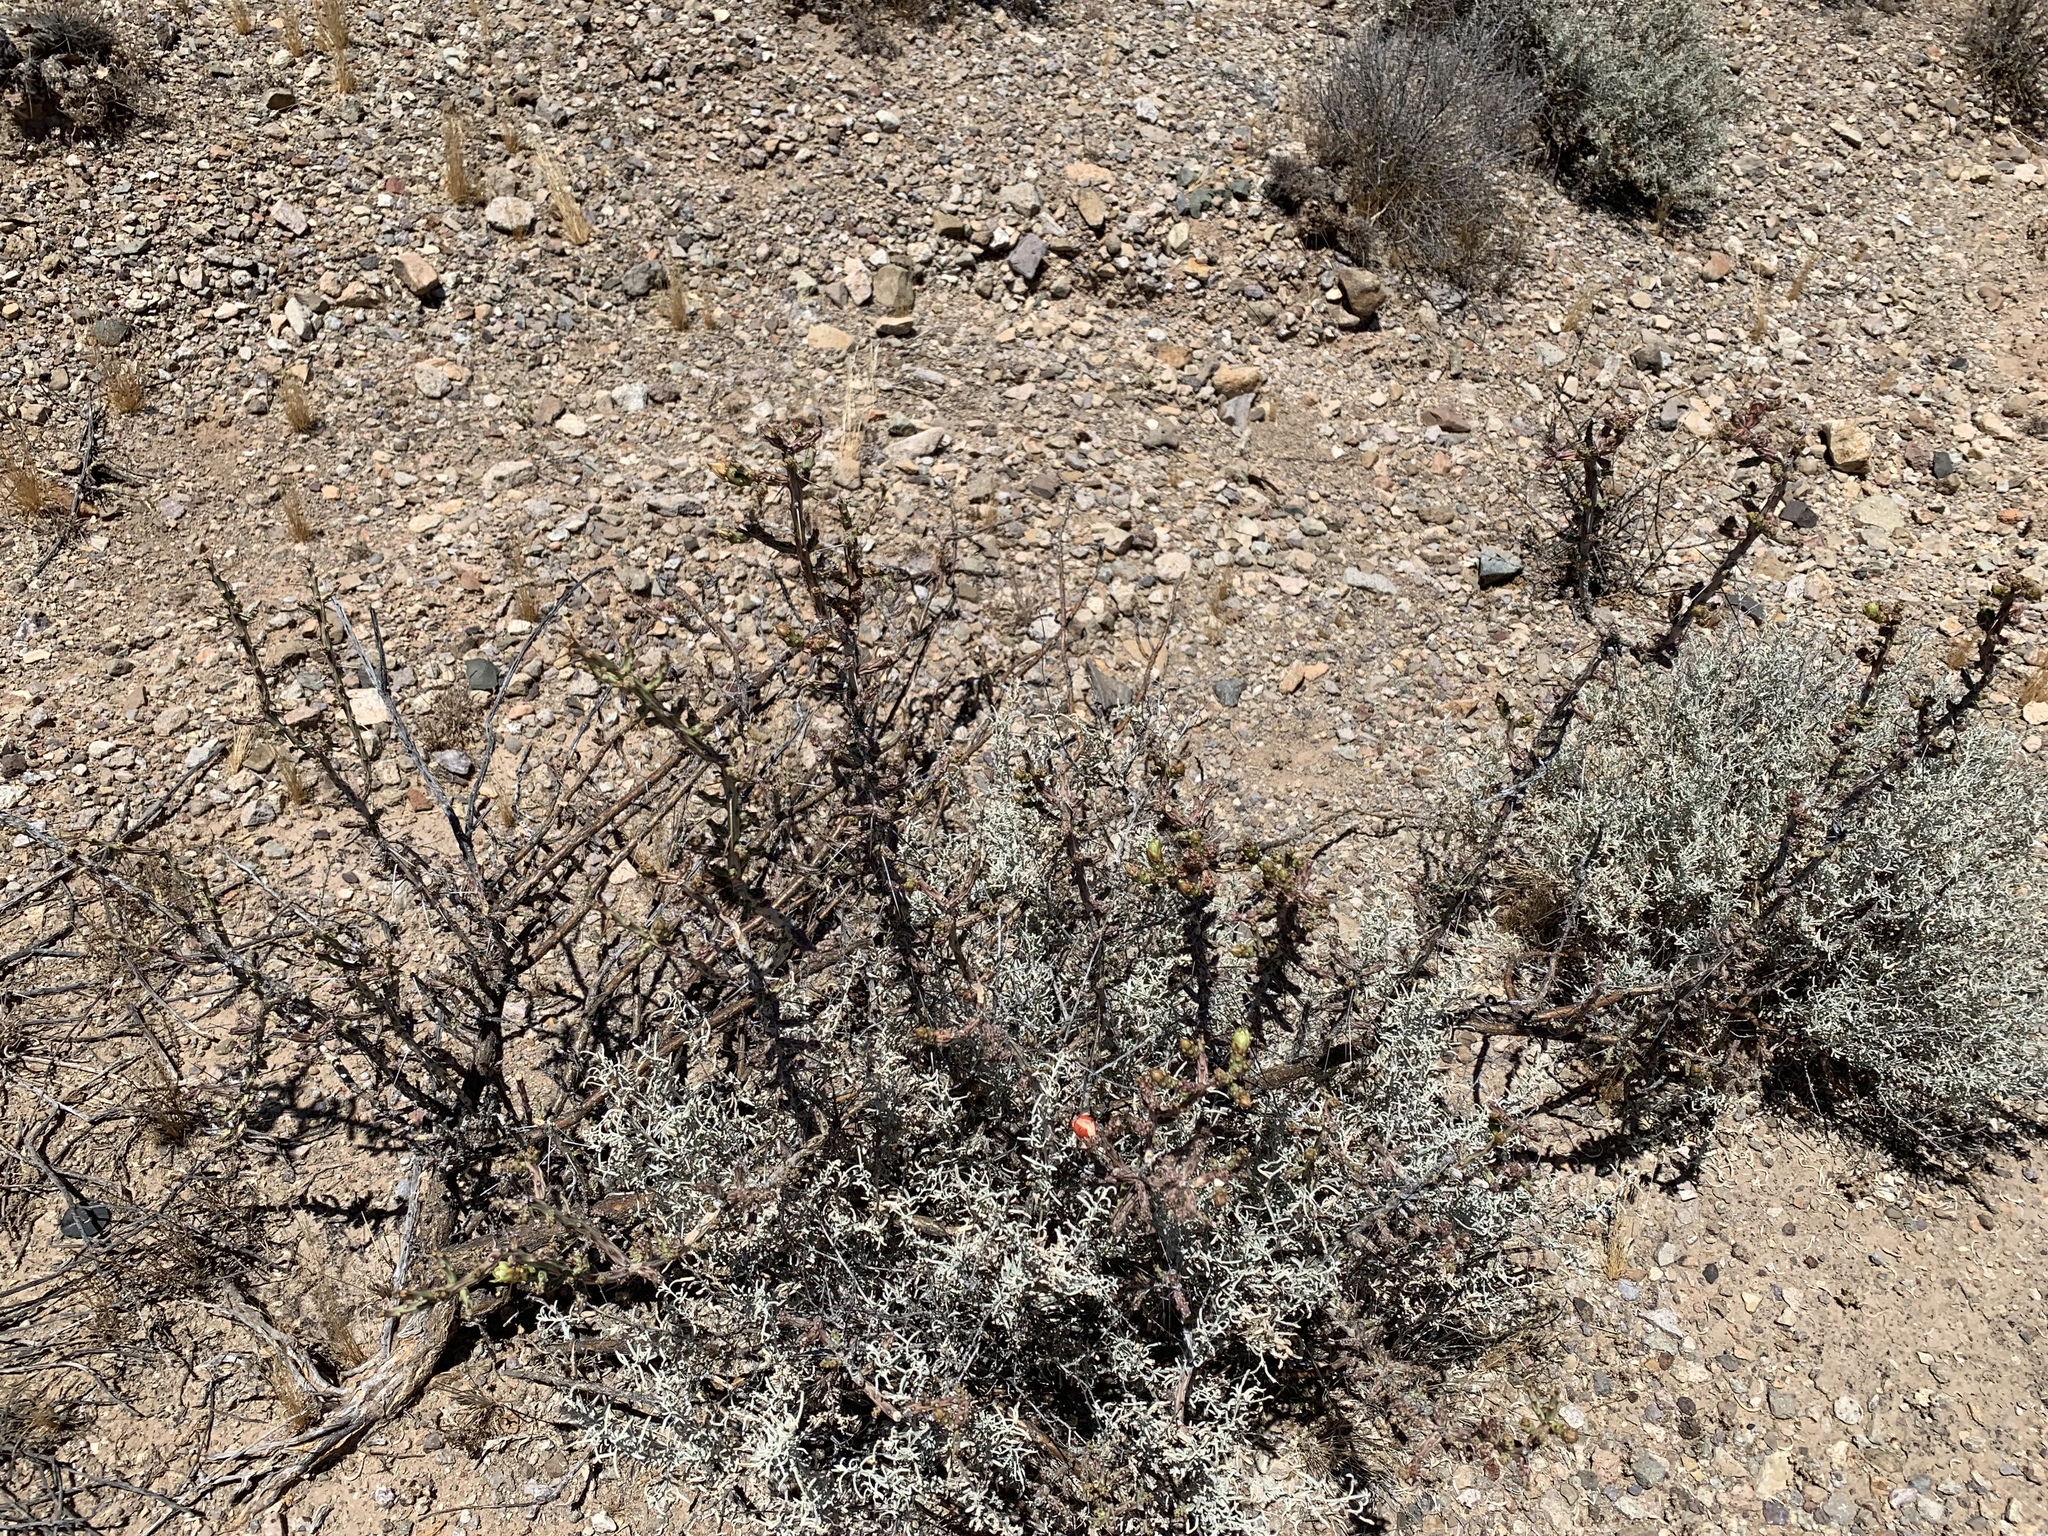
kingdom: Plantae
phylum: Tracheophyta
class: Magnoliopsida
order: Caryophyllales
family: Cactaceae
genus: Cylindropuntia
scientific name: Cylindropuntia leptocaulis
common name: Christmas cactus
